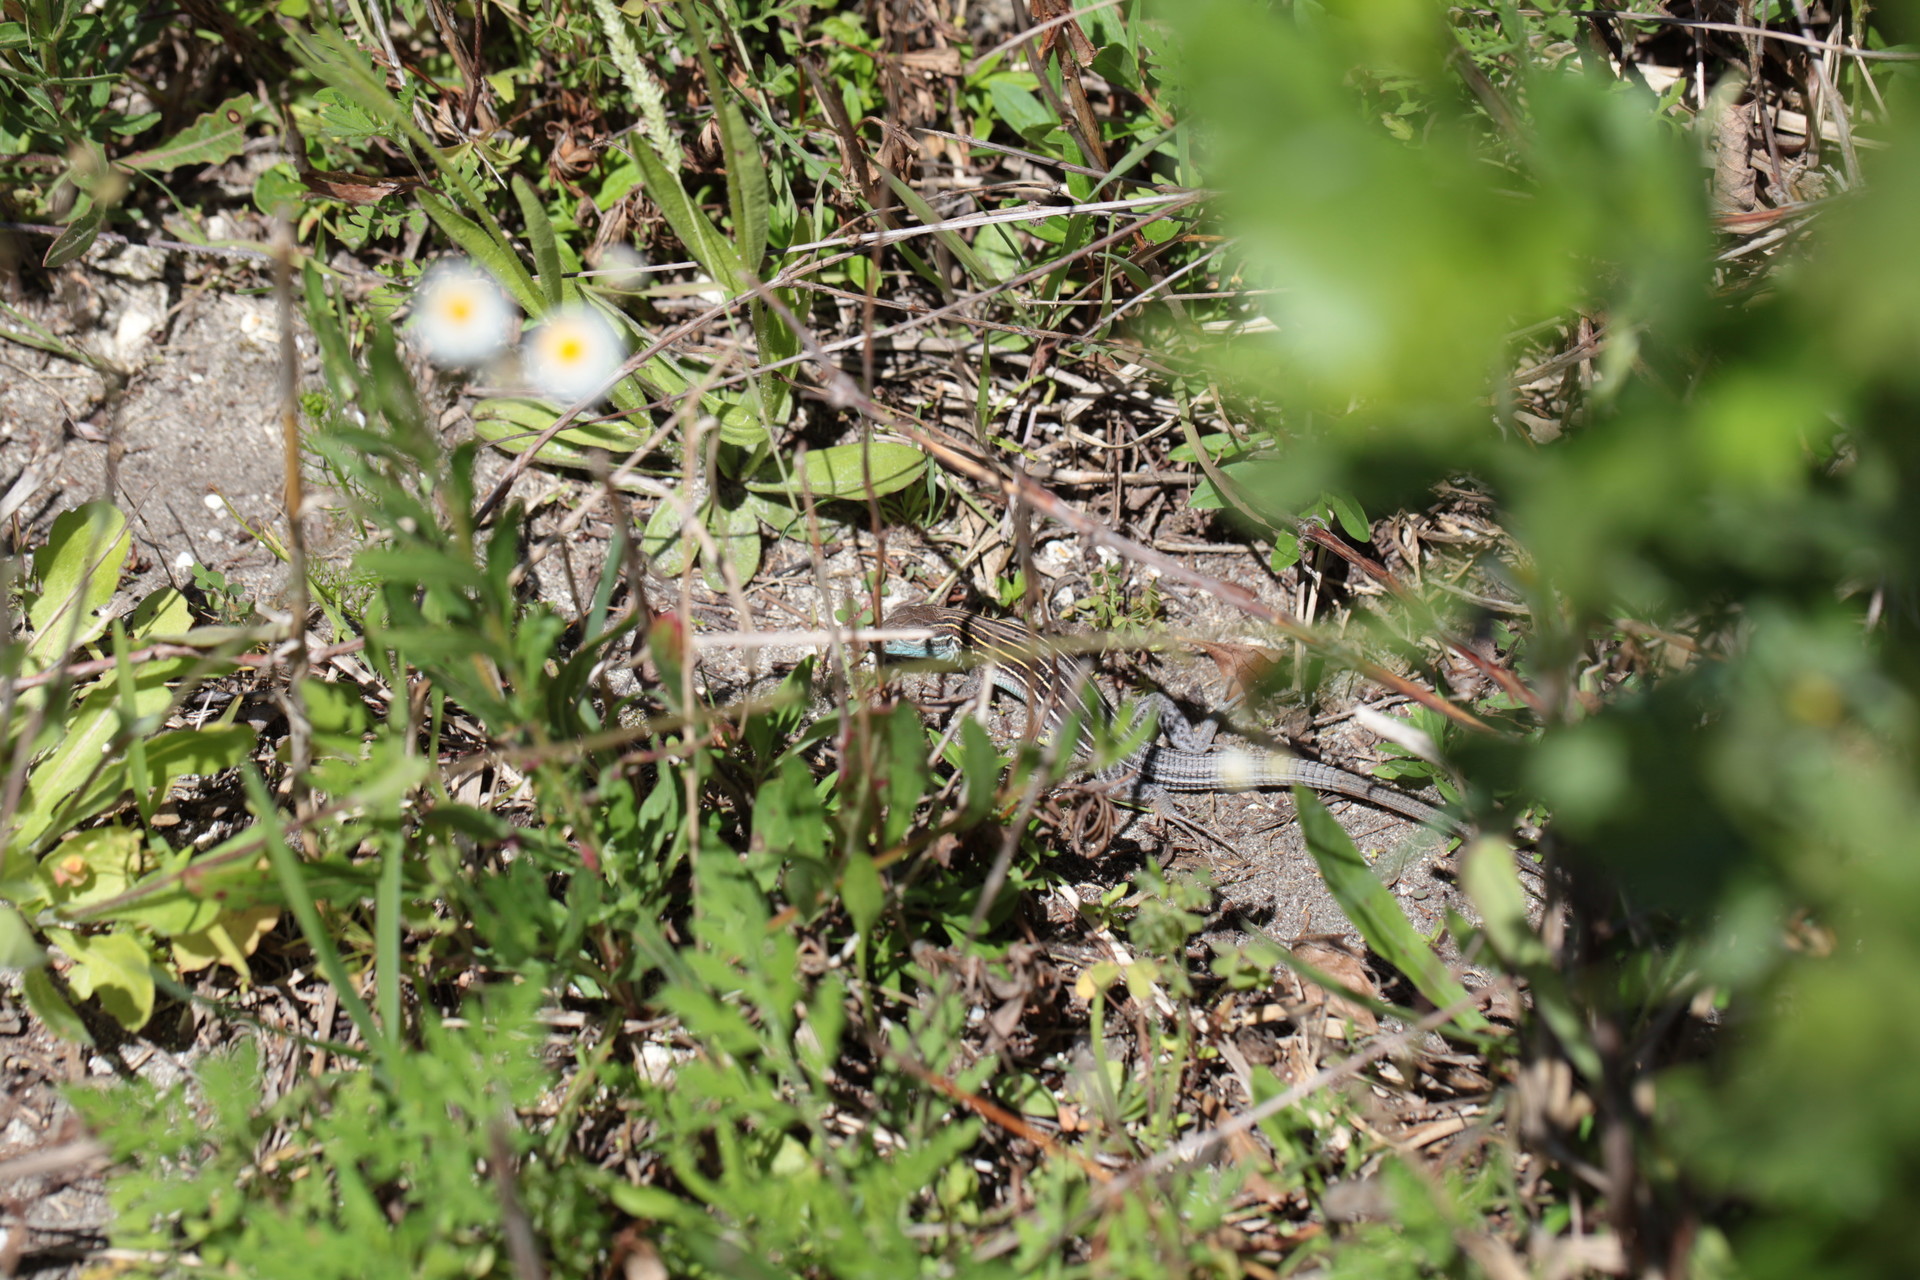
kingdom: Animalia
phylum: Chordata
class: Squamata
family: Teiidae
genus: Aspidoscelis
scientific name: Aspidoscelis sexlineatus
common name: Six-lined racerunner
